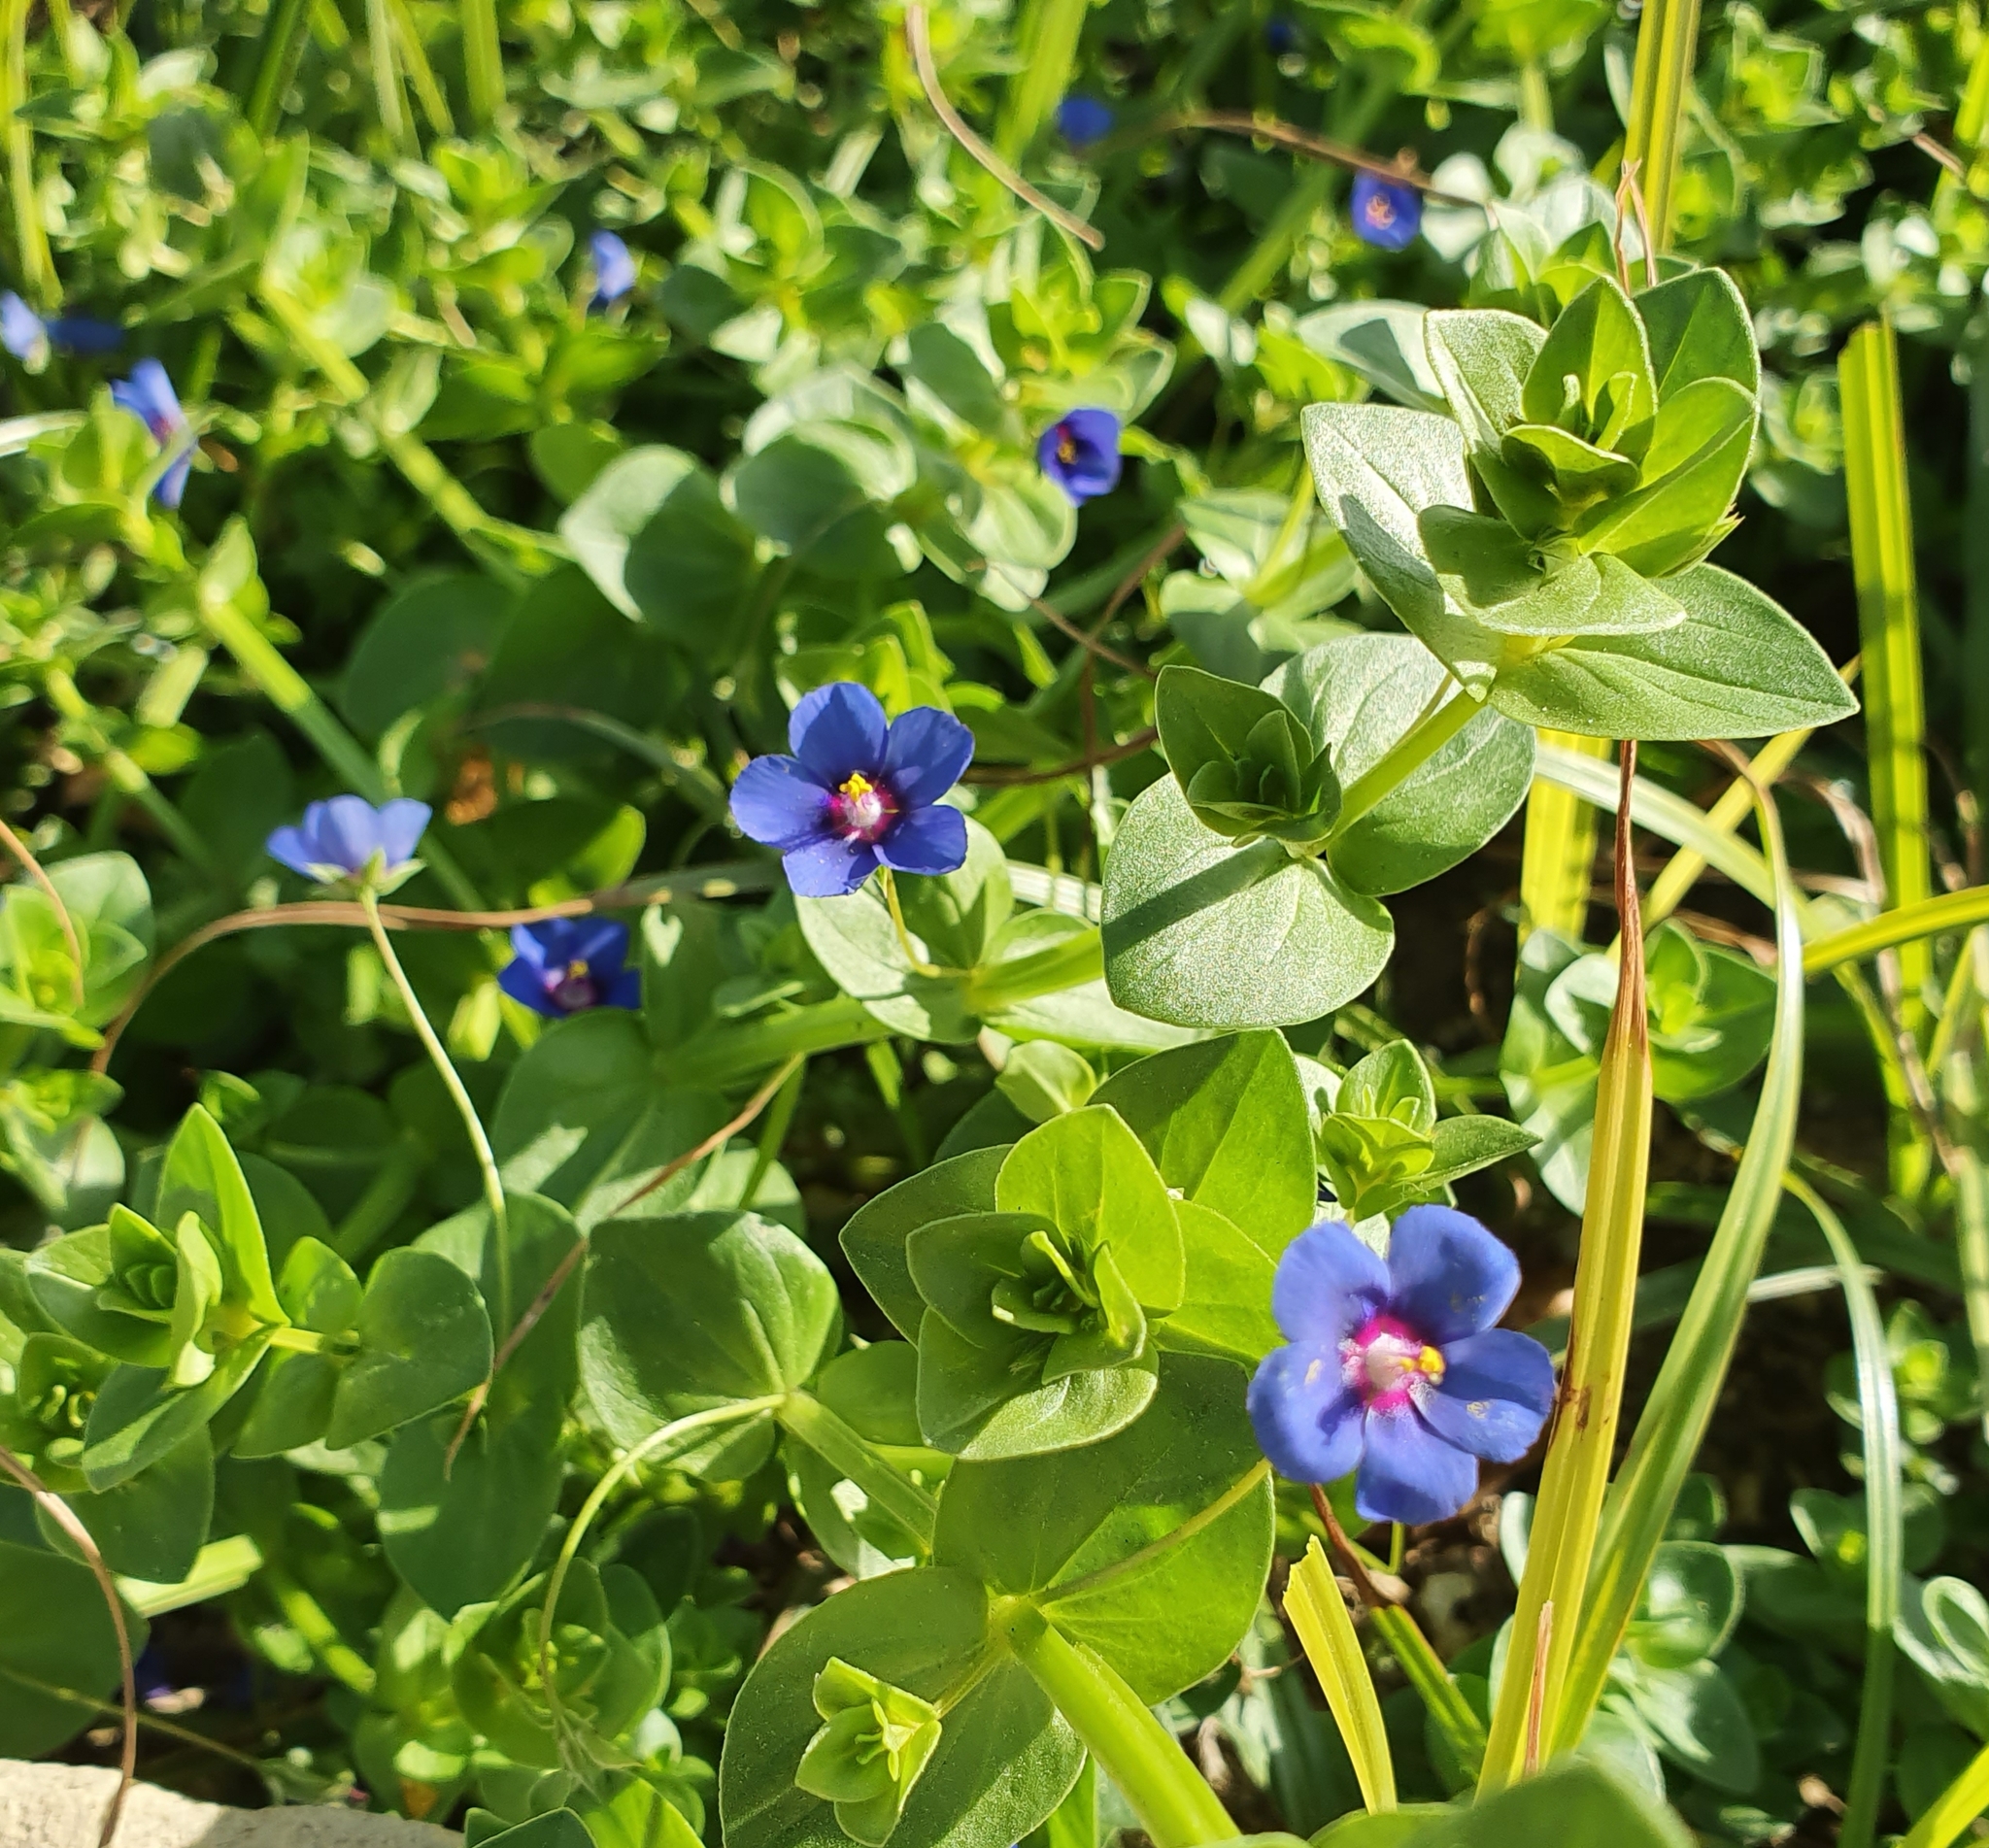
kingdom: Plantae
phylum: Tracheophyta
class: Magnoliopsida
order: Ericales
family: Primulaceae
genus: Lysimachia
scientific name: Lysimachia loeflingii
